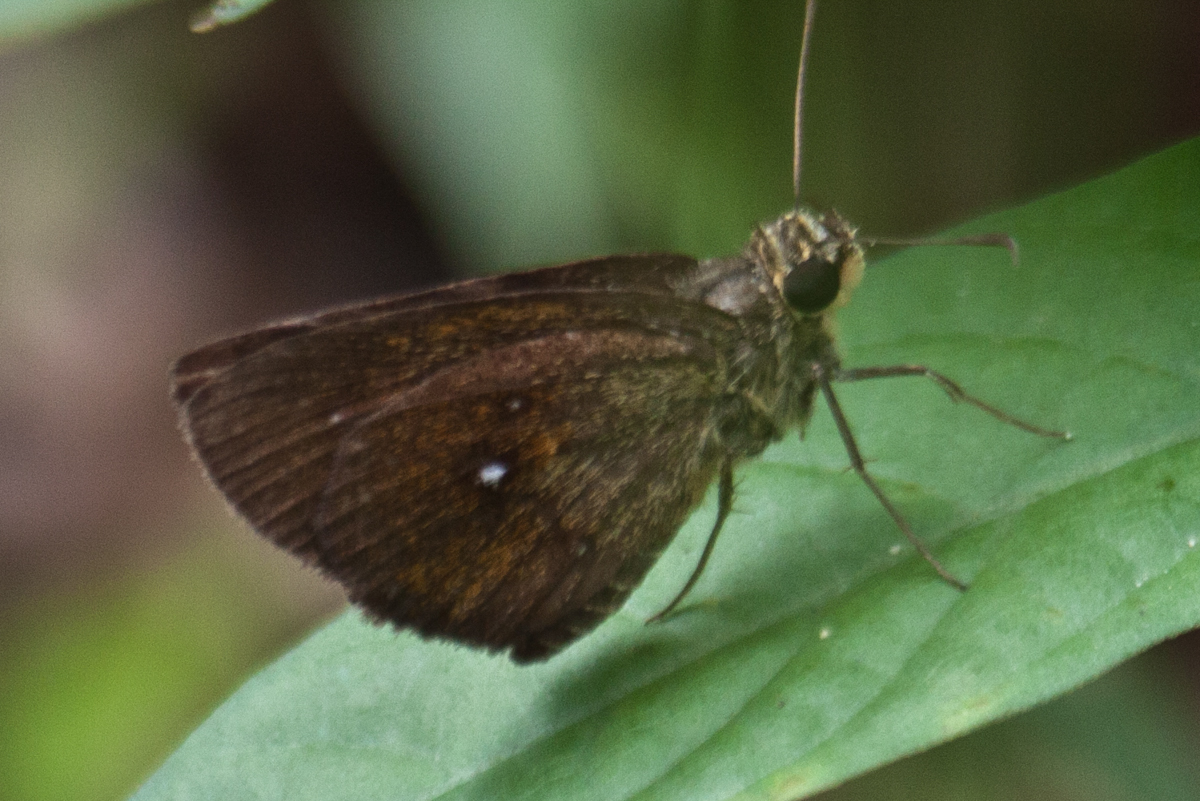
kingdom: Animalia
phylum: Arthropoda
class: Insecta
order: Lepidoptera
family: Hesperiidae
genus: Iambrix
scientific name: Iambrix salsala
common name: Chestnut bob
